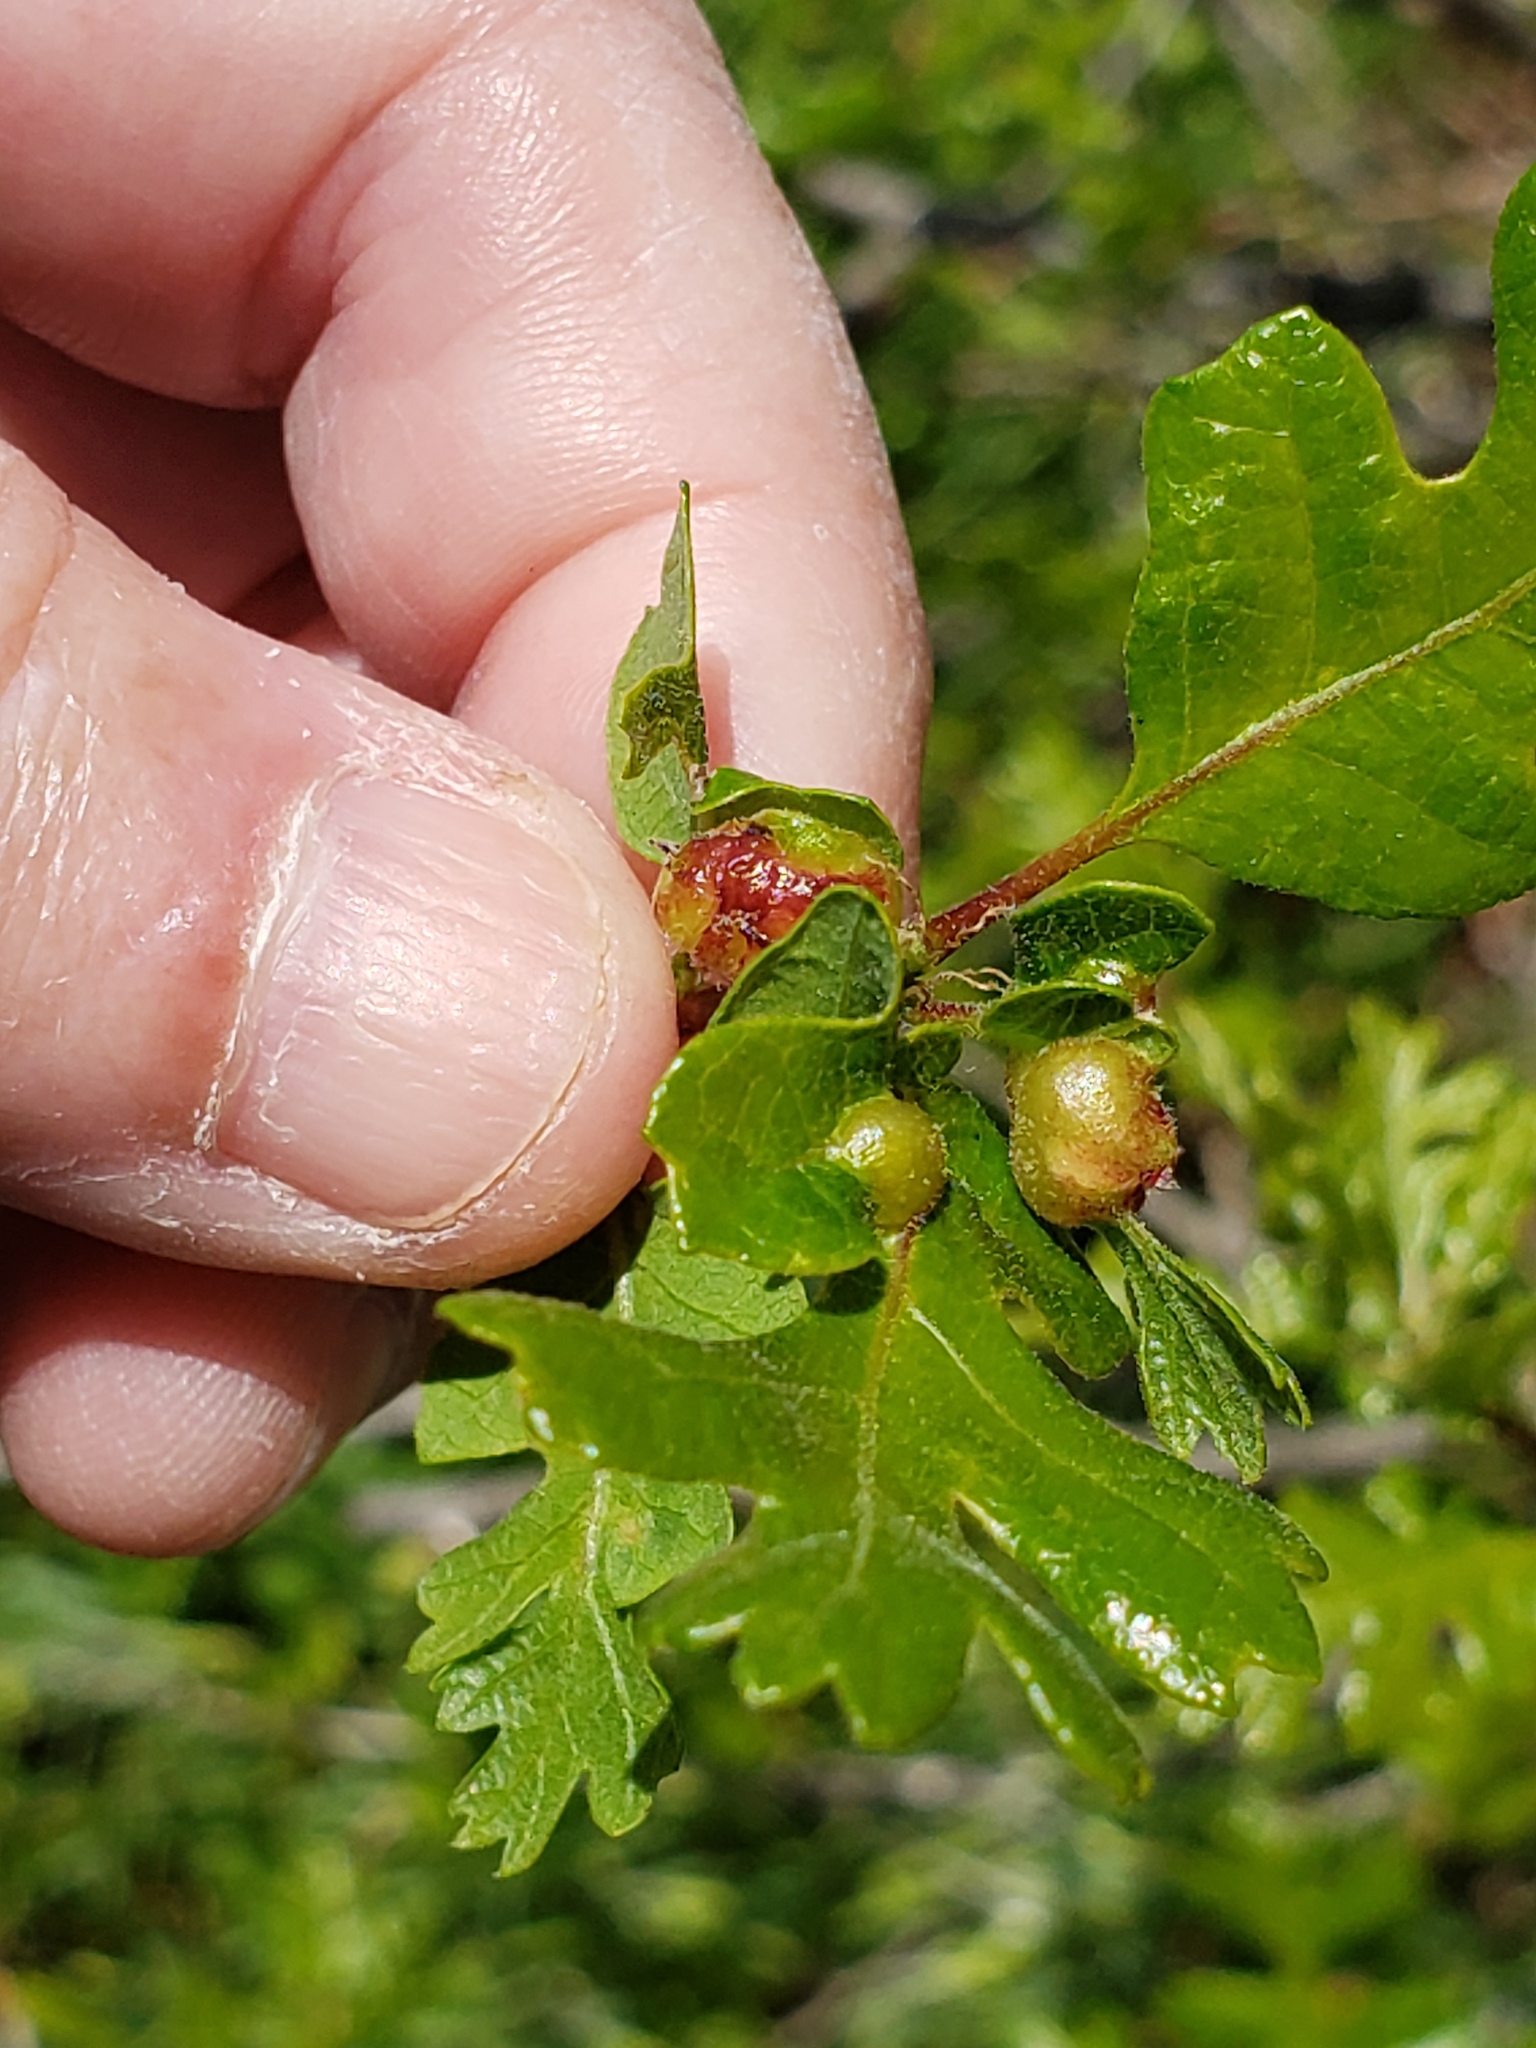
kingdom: Animalia
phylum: Arthropoda
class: Insecta
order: Hymenoptera
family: Cynipidae
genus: Neuroterus
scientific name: Neuroterus
